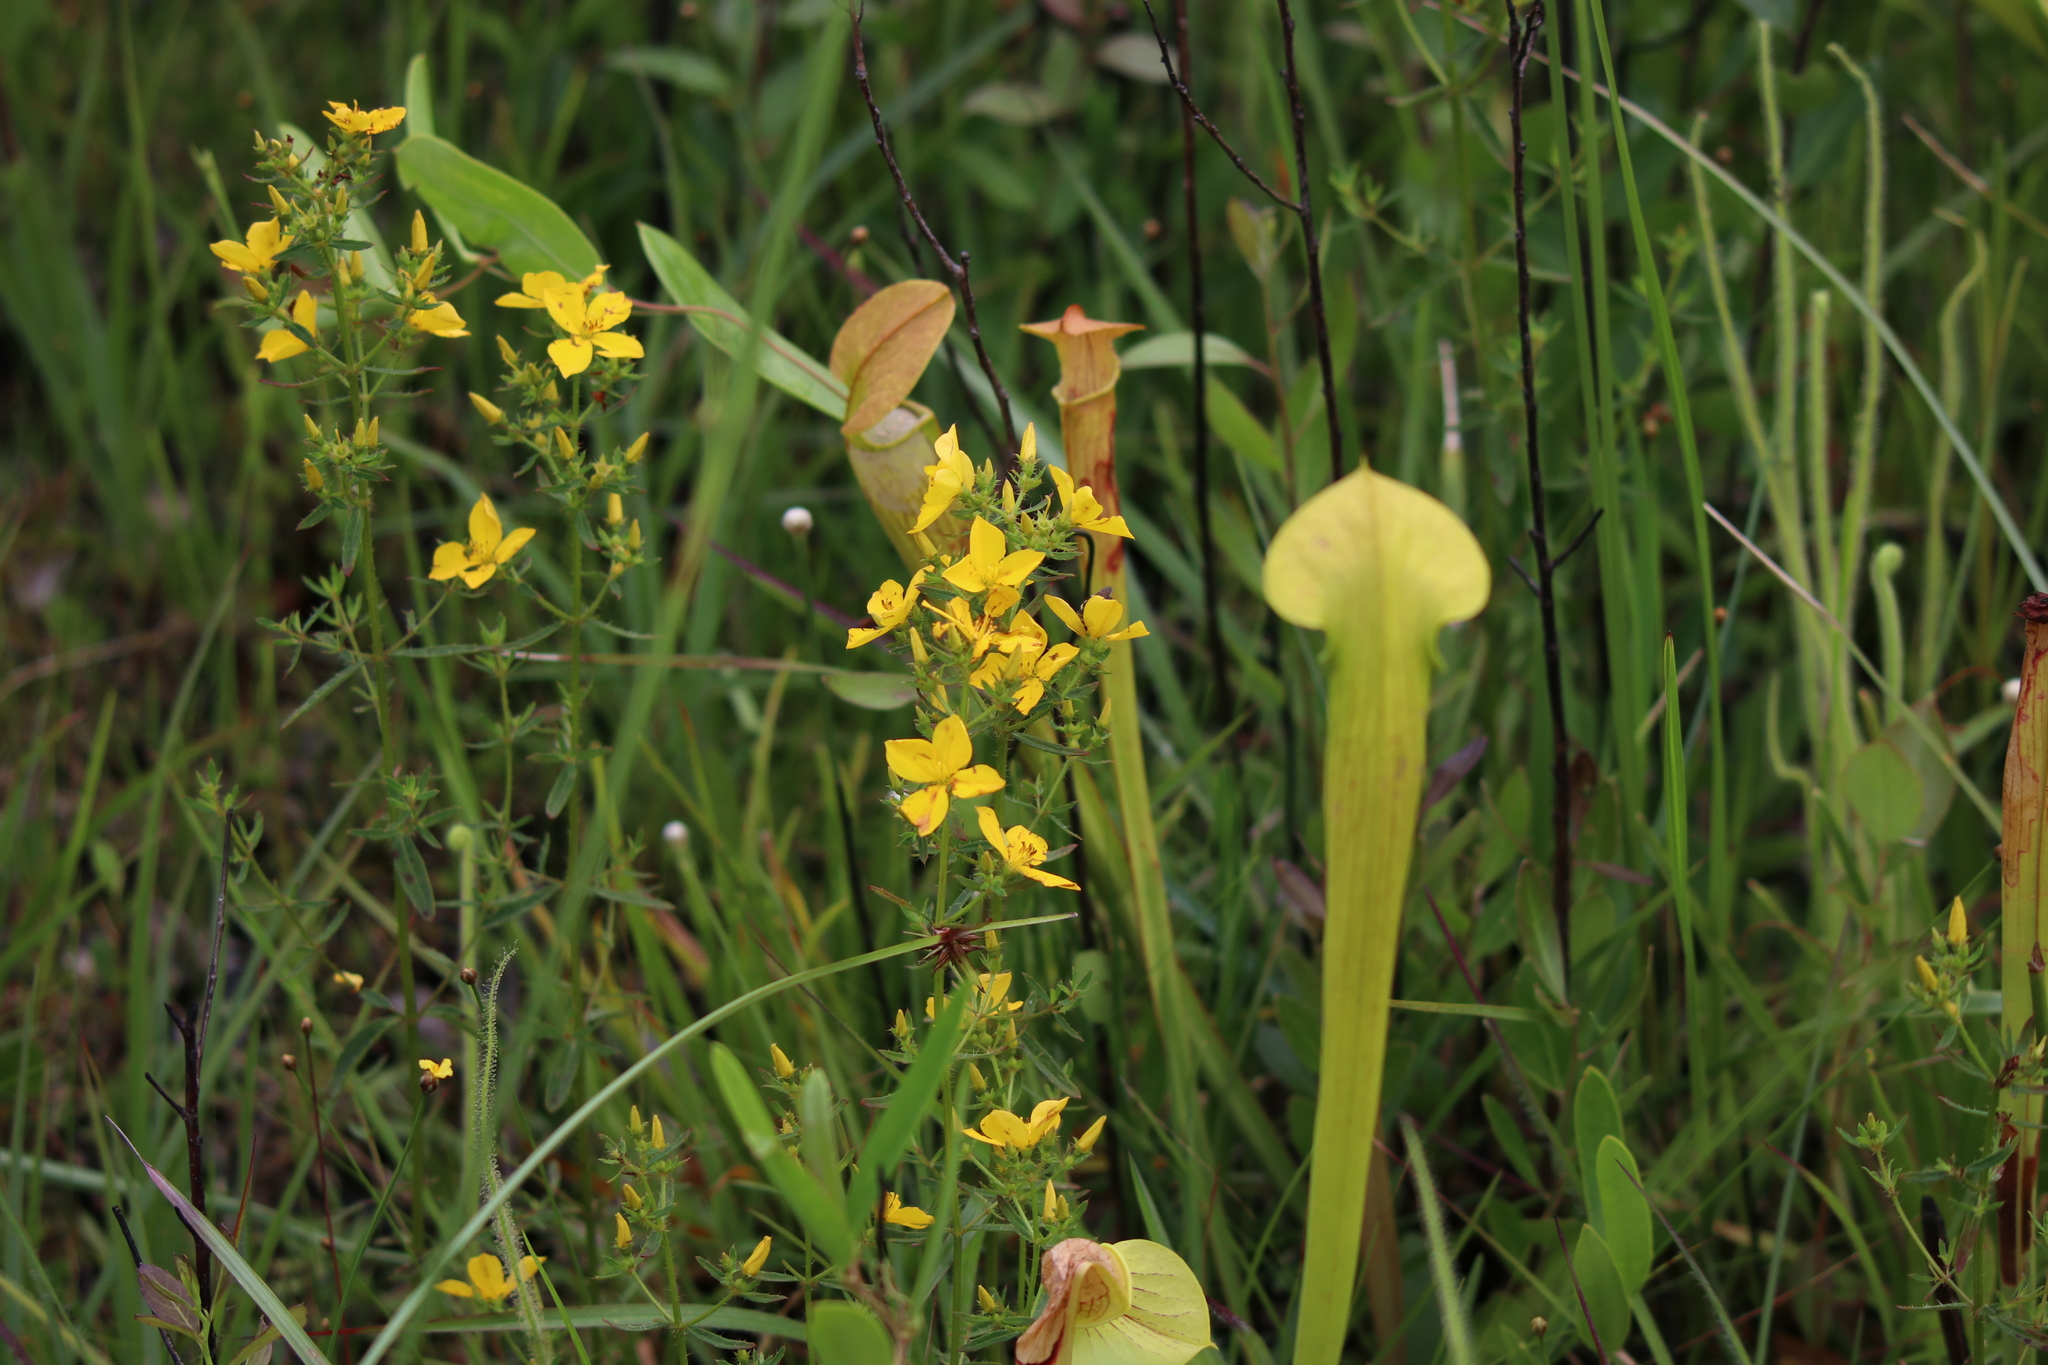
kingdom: Plantae
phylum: Tracheophyta
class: Magnoliopsida
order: Myrtales
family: Melastomataceae
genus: Rhexia
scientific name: Rhexia lutea
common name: Golden meadow-beauty
